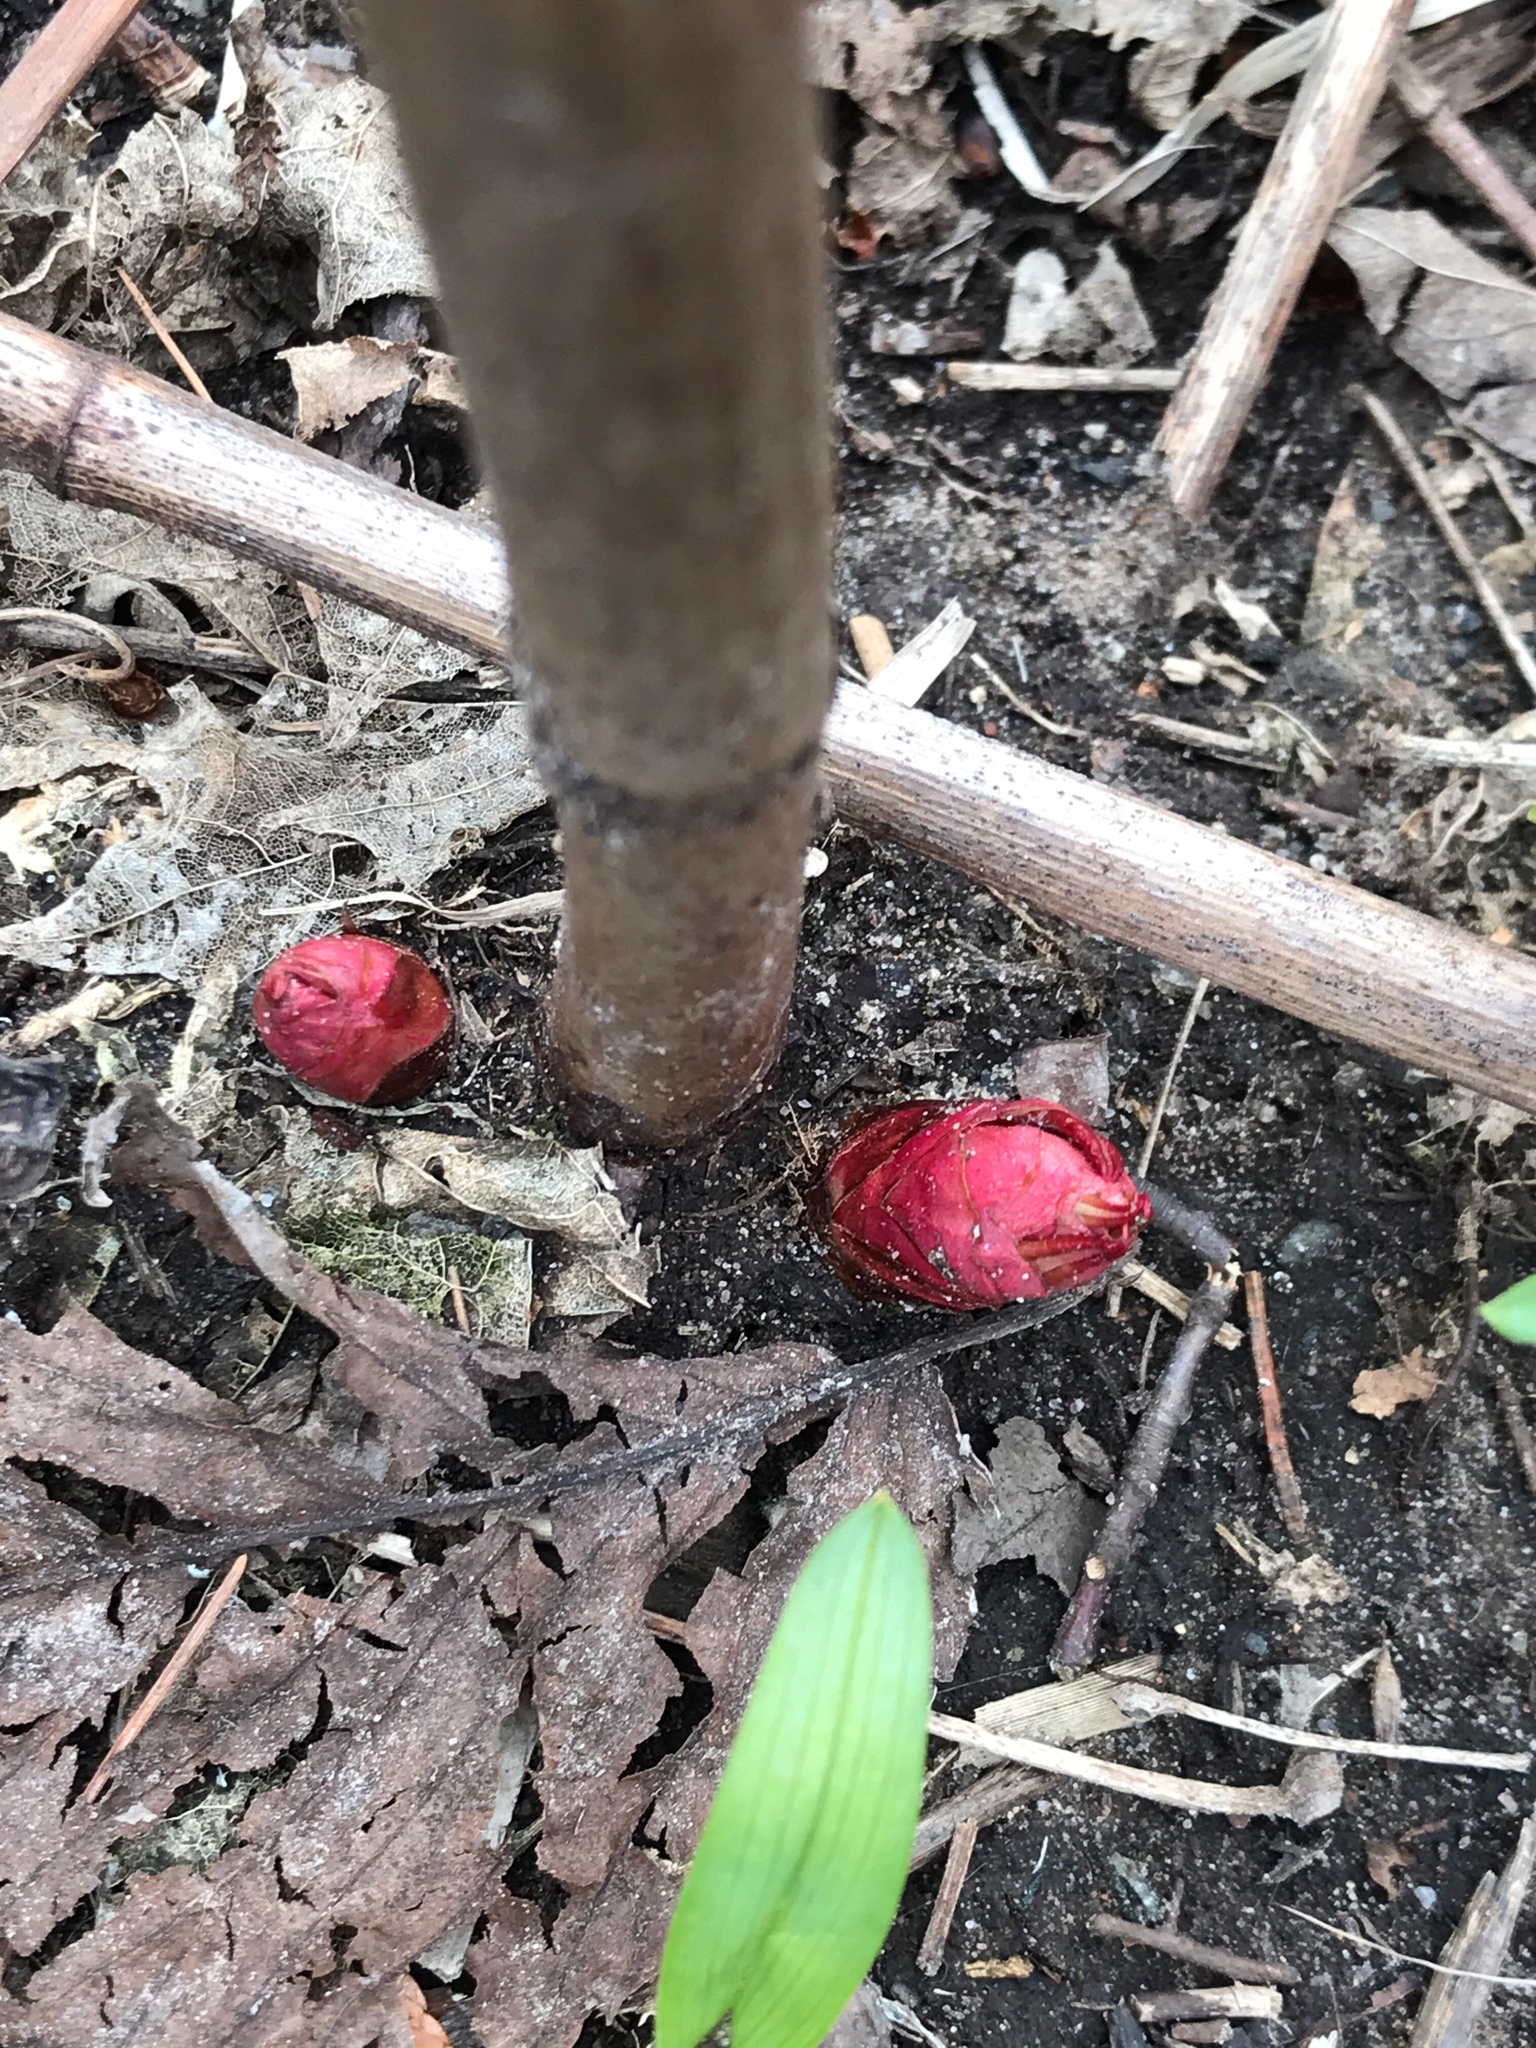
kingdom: Plantae
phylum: Tracheophyta
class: Magnoliopsida
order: Caryophyllales
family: Polygonaceae
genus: Reynoutria
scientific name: Reynoutria japonica
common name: Japanese knotweed
